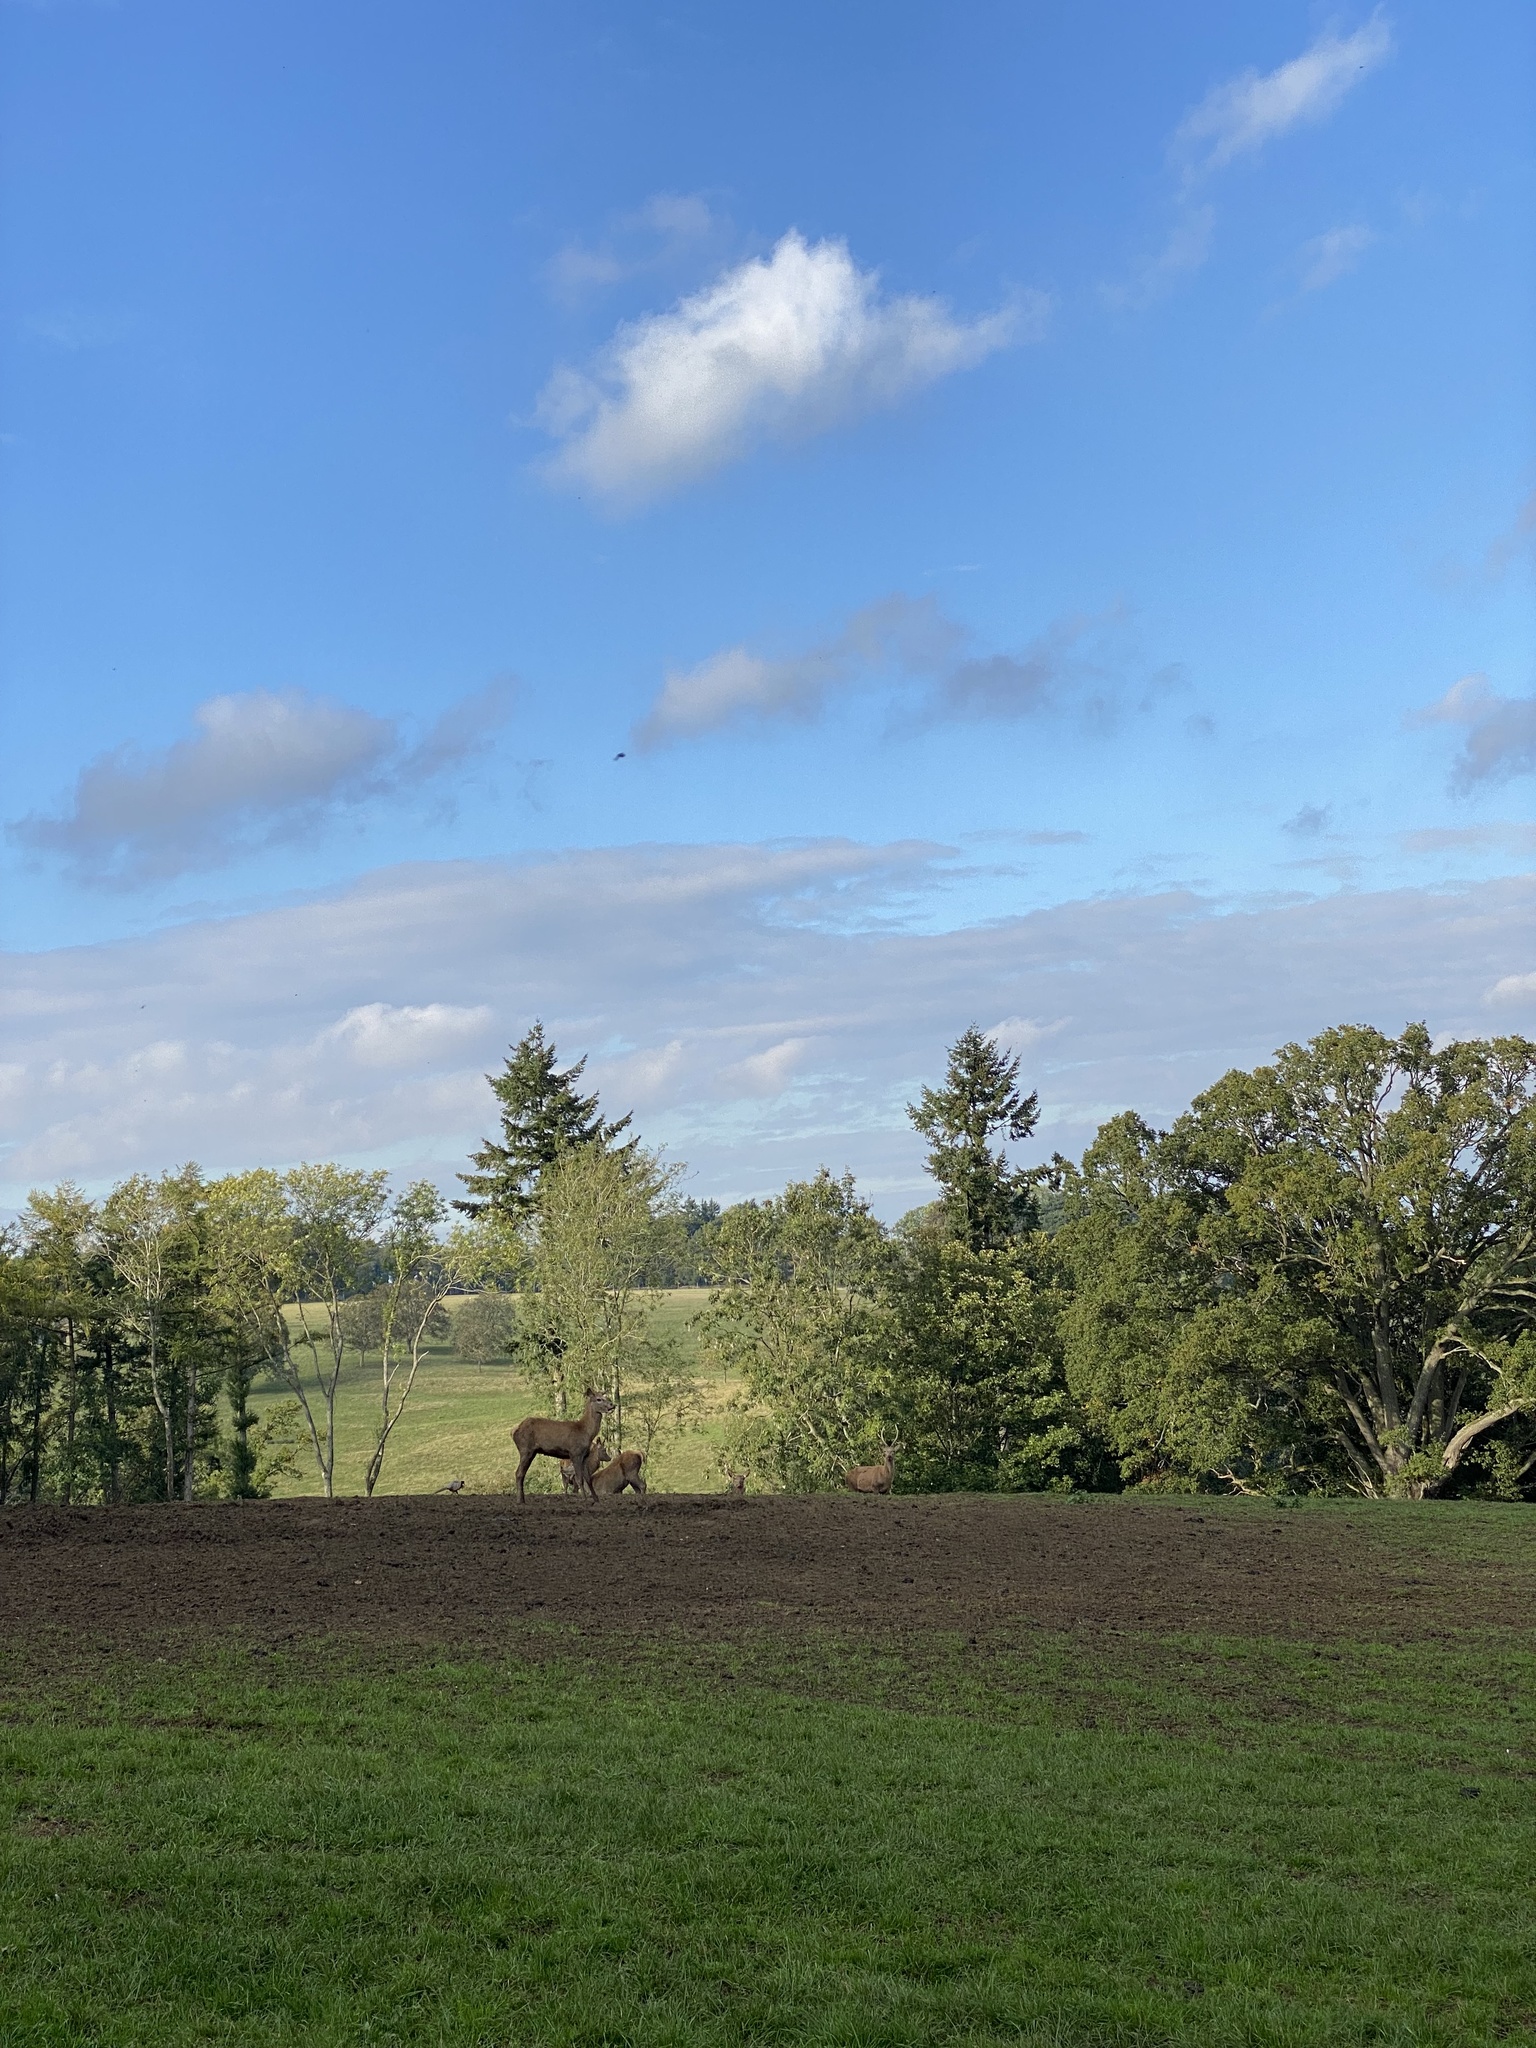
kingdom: Animalia
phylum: Chordata
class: Mammalia
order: Artiodactyla
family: Cervidae
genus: Cervus
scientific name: Cervus elaphus
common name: Red deer
